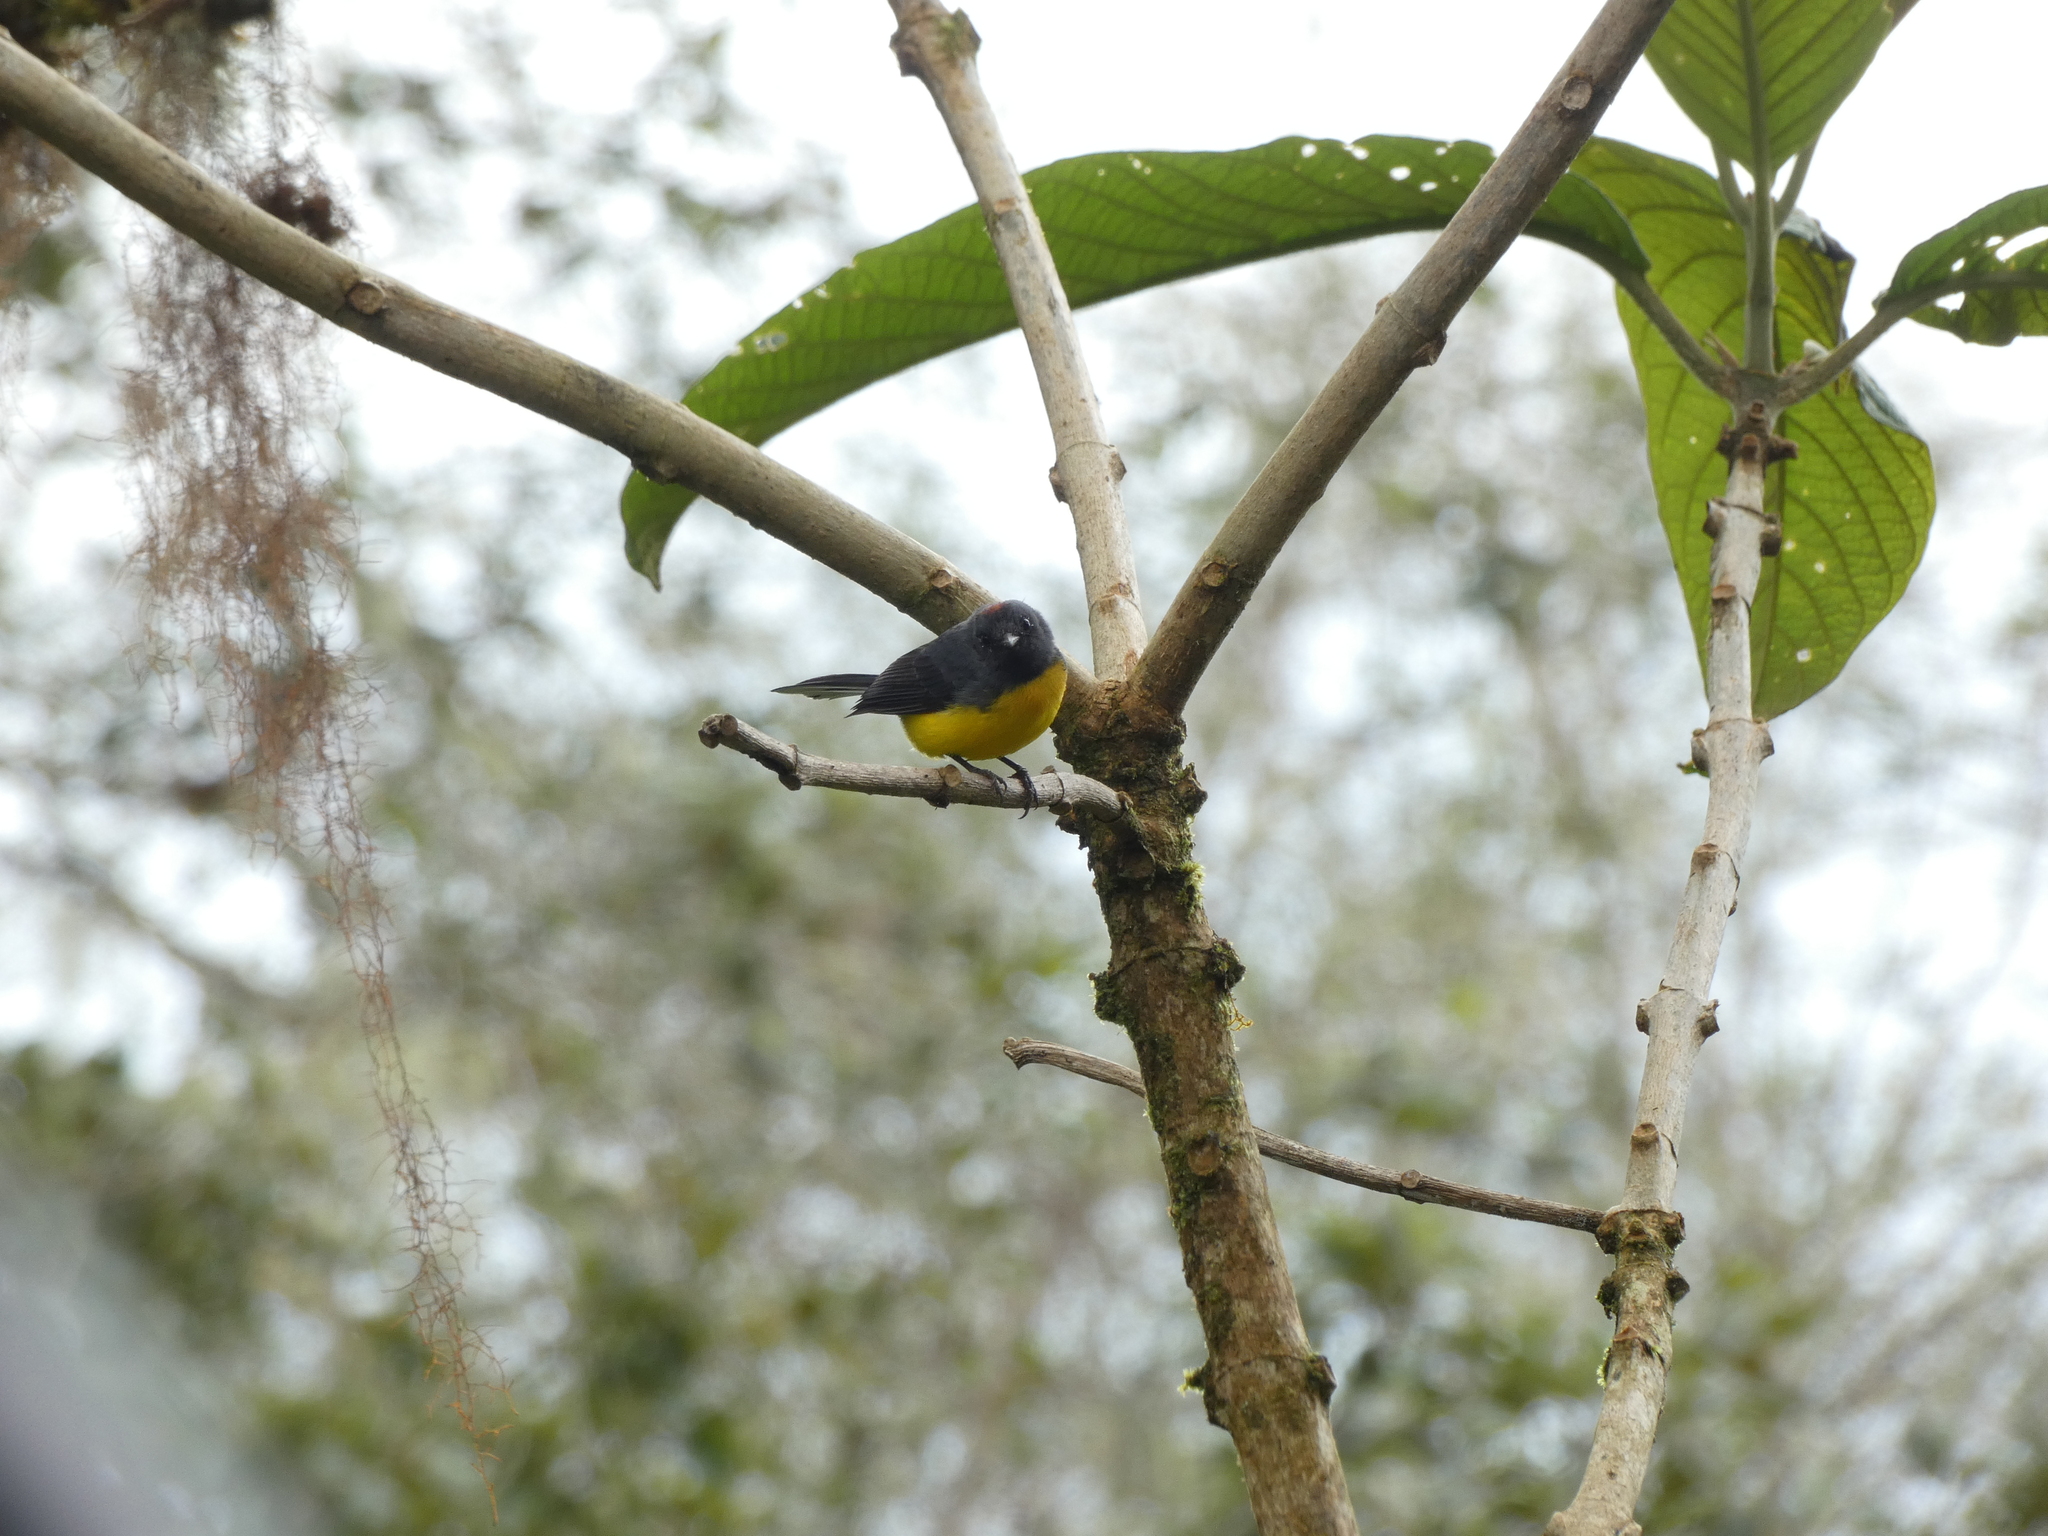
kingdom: Animalia
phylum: Chordata
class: Aves
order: Passeriformes
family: Parulidae
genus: Myioborus
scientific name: Myioborus miniatus
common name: Slate-throated redstart
